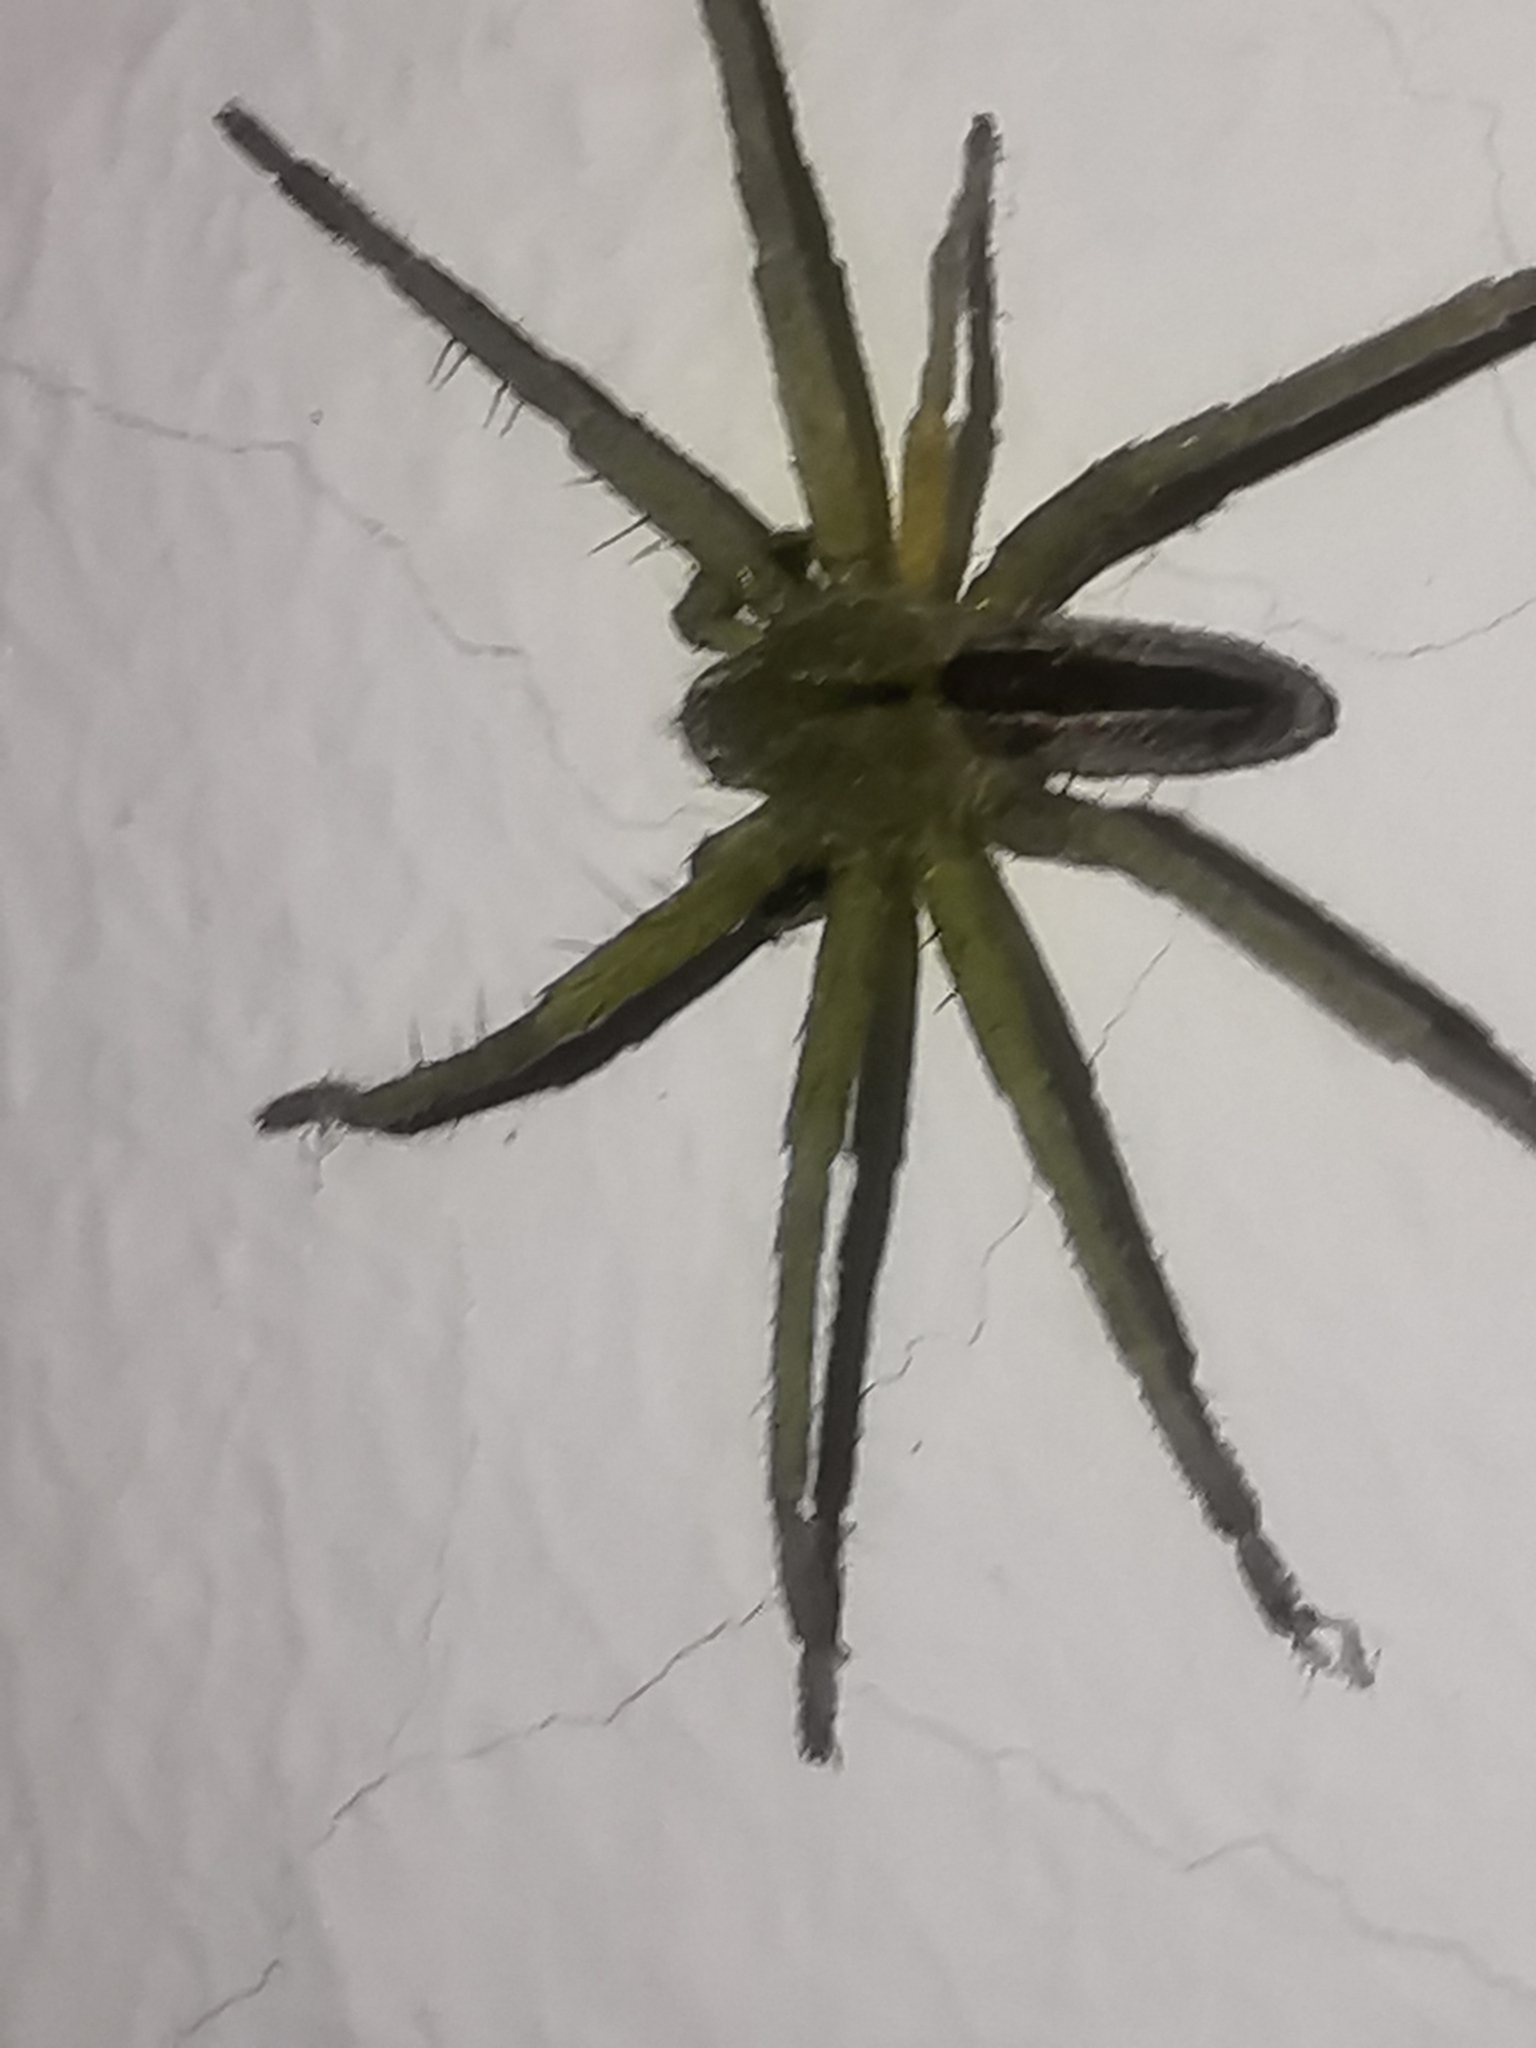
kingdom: Animalia
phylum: Arthropoda
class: Arachnida
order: Araneae
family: Sparassidae
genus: Micrommata
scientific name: Micrommata ligurina
